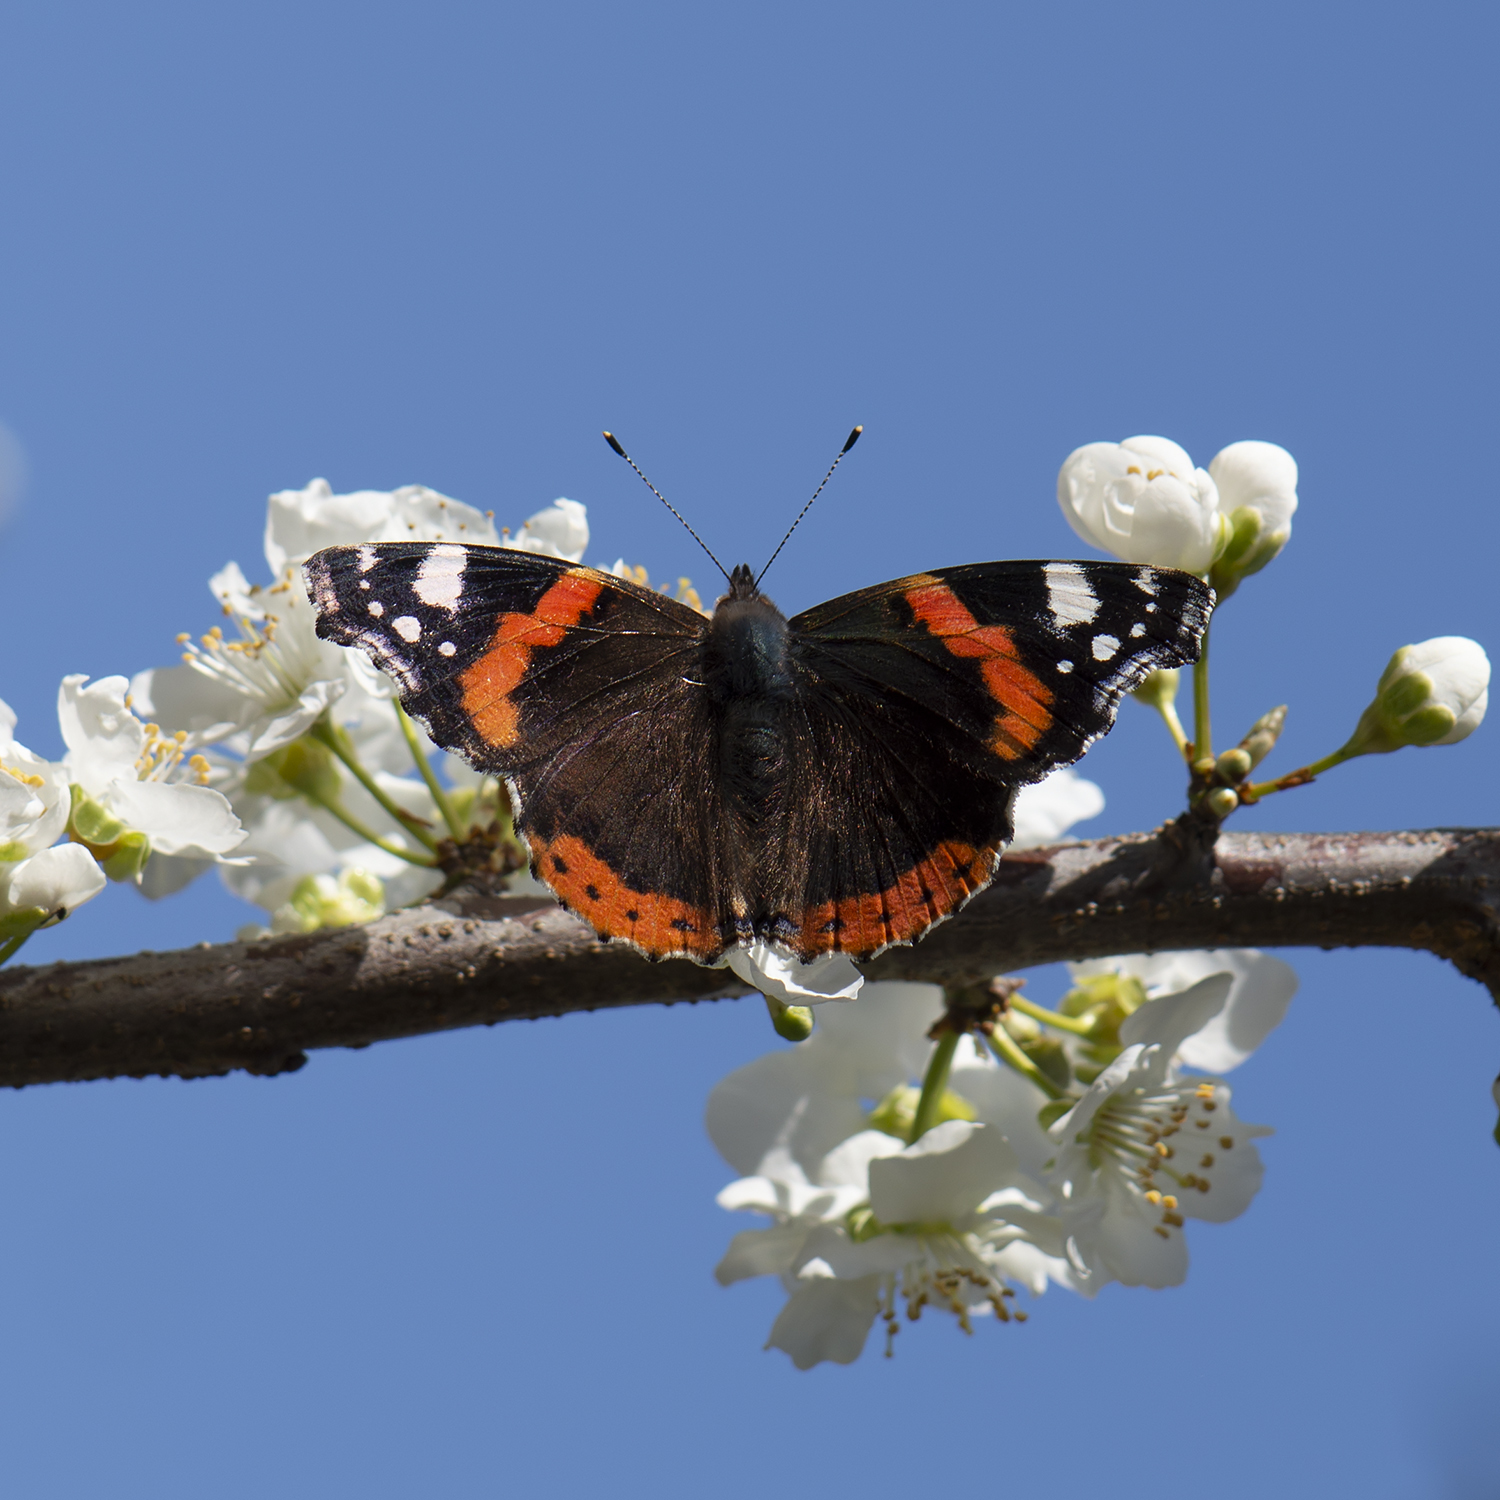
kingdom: Animalia
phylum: Arthropoda
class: Insecta
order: Lepidoptera
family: Nymphalidae
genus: Vanessa
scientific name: Vanessa atalanta
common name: Red admiral
